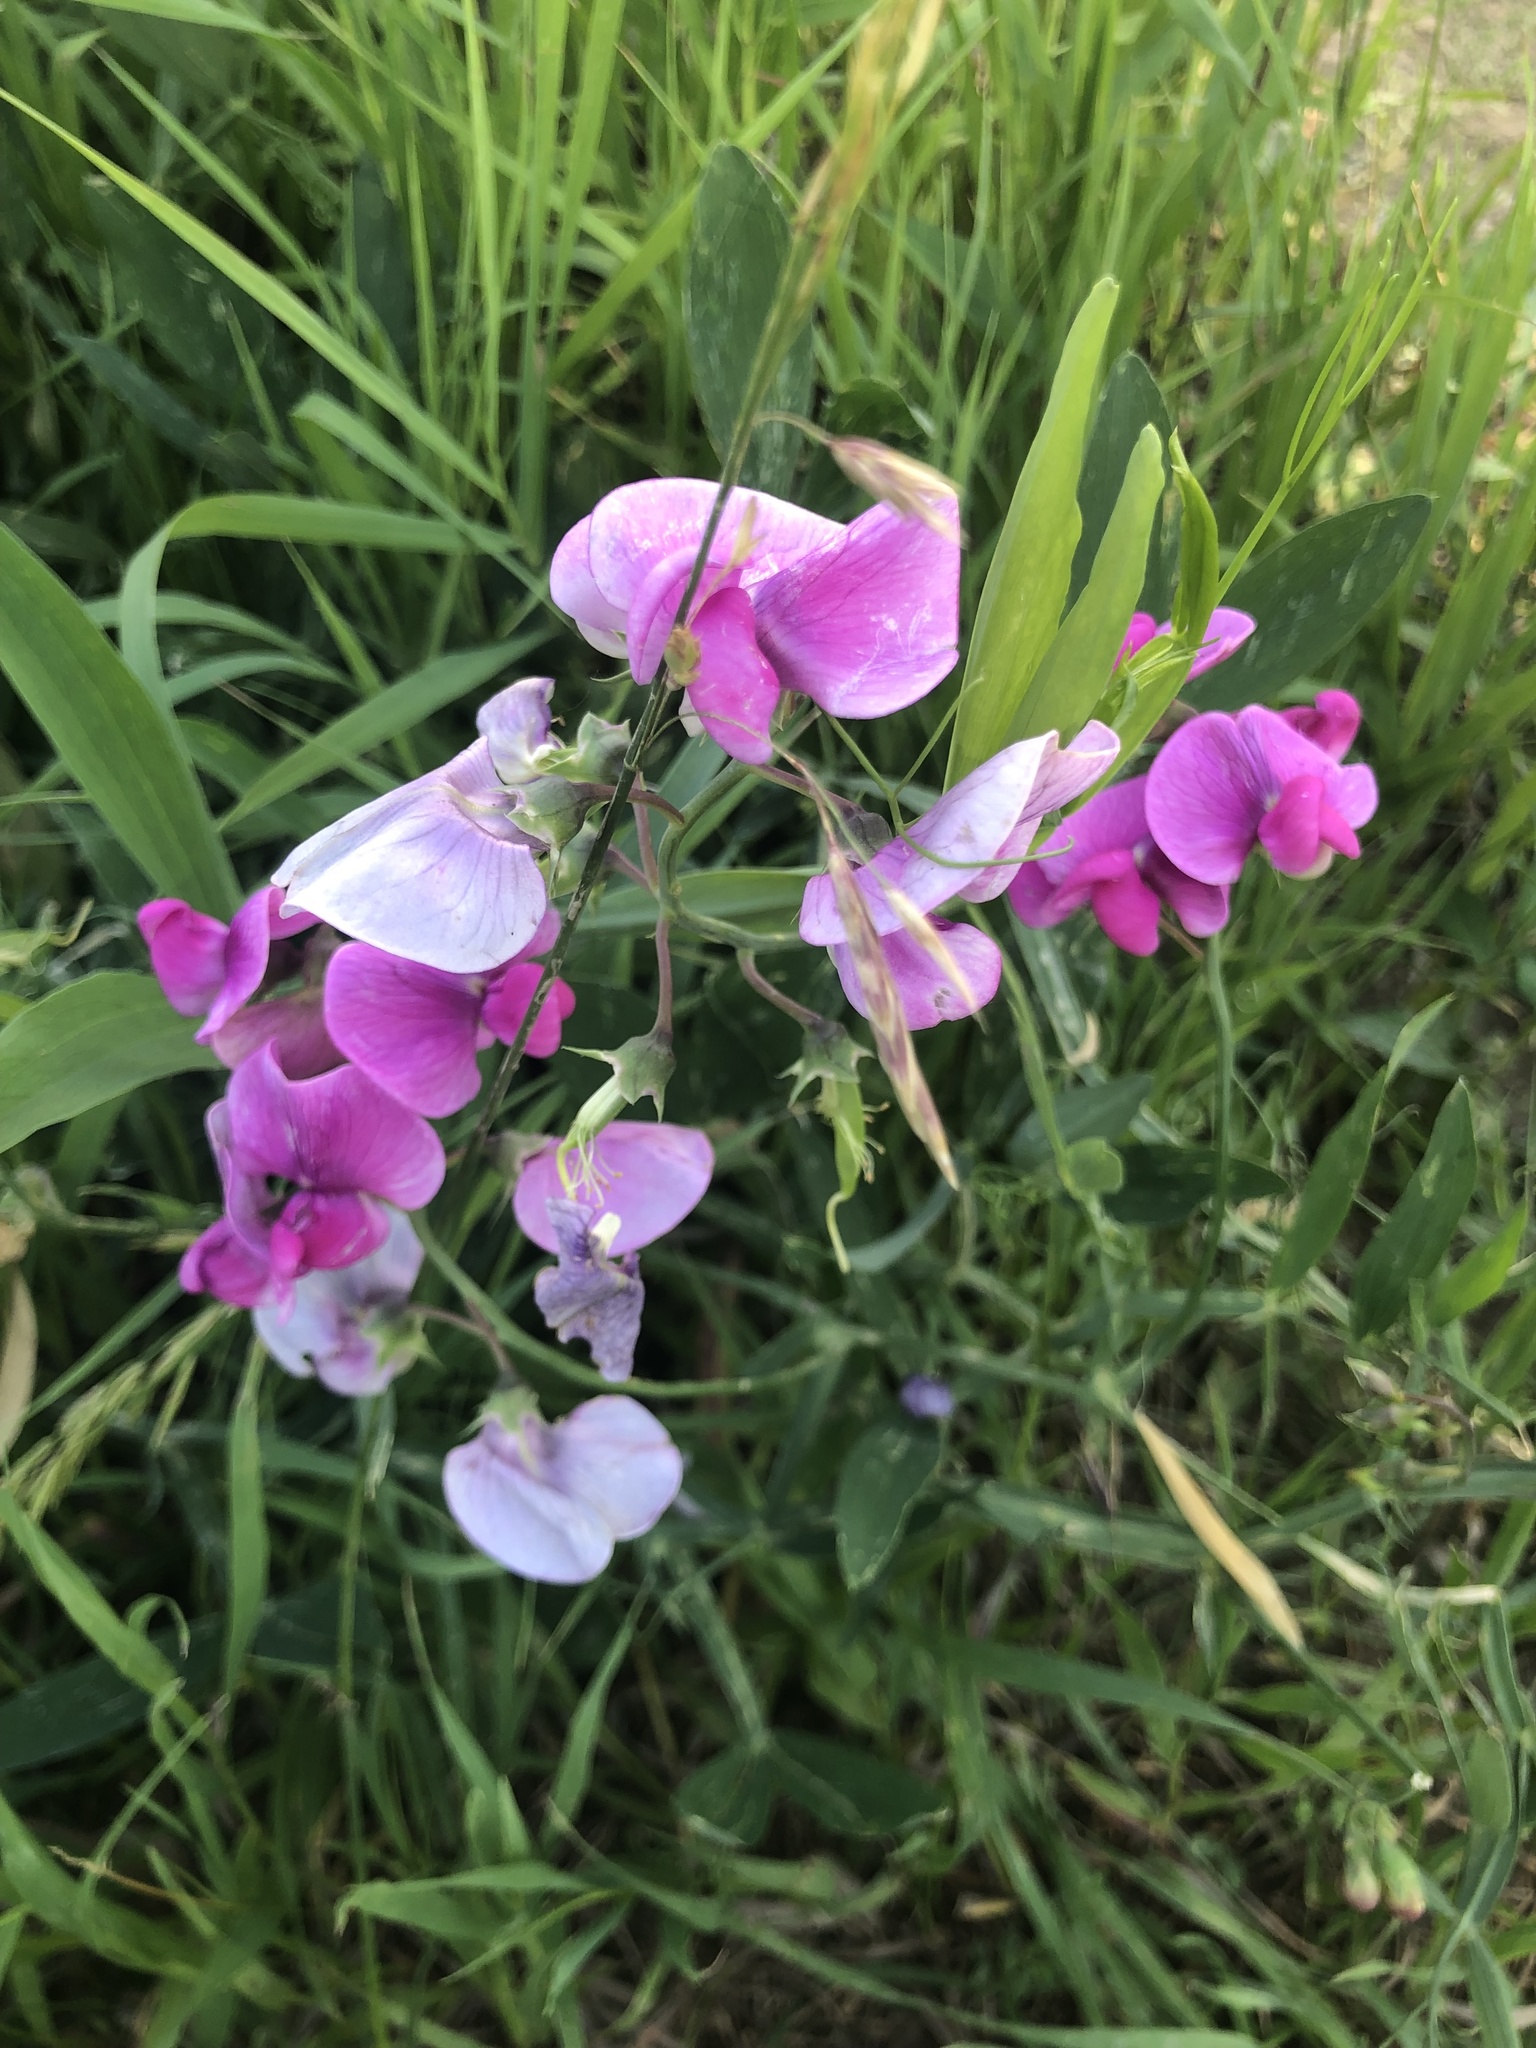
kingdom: Plantae
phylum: Tracheophyta
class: Magnoliopsida
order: Fabales
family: Fabaceae
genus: Lathyrus
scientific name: Lathyrus latifolius
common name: Perennial pea
